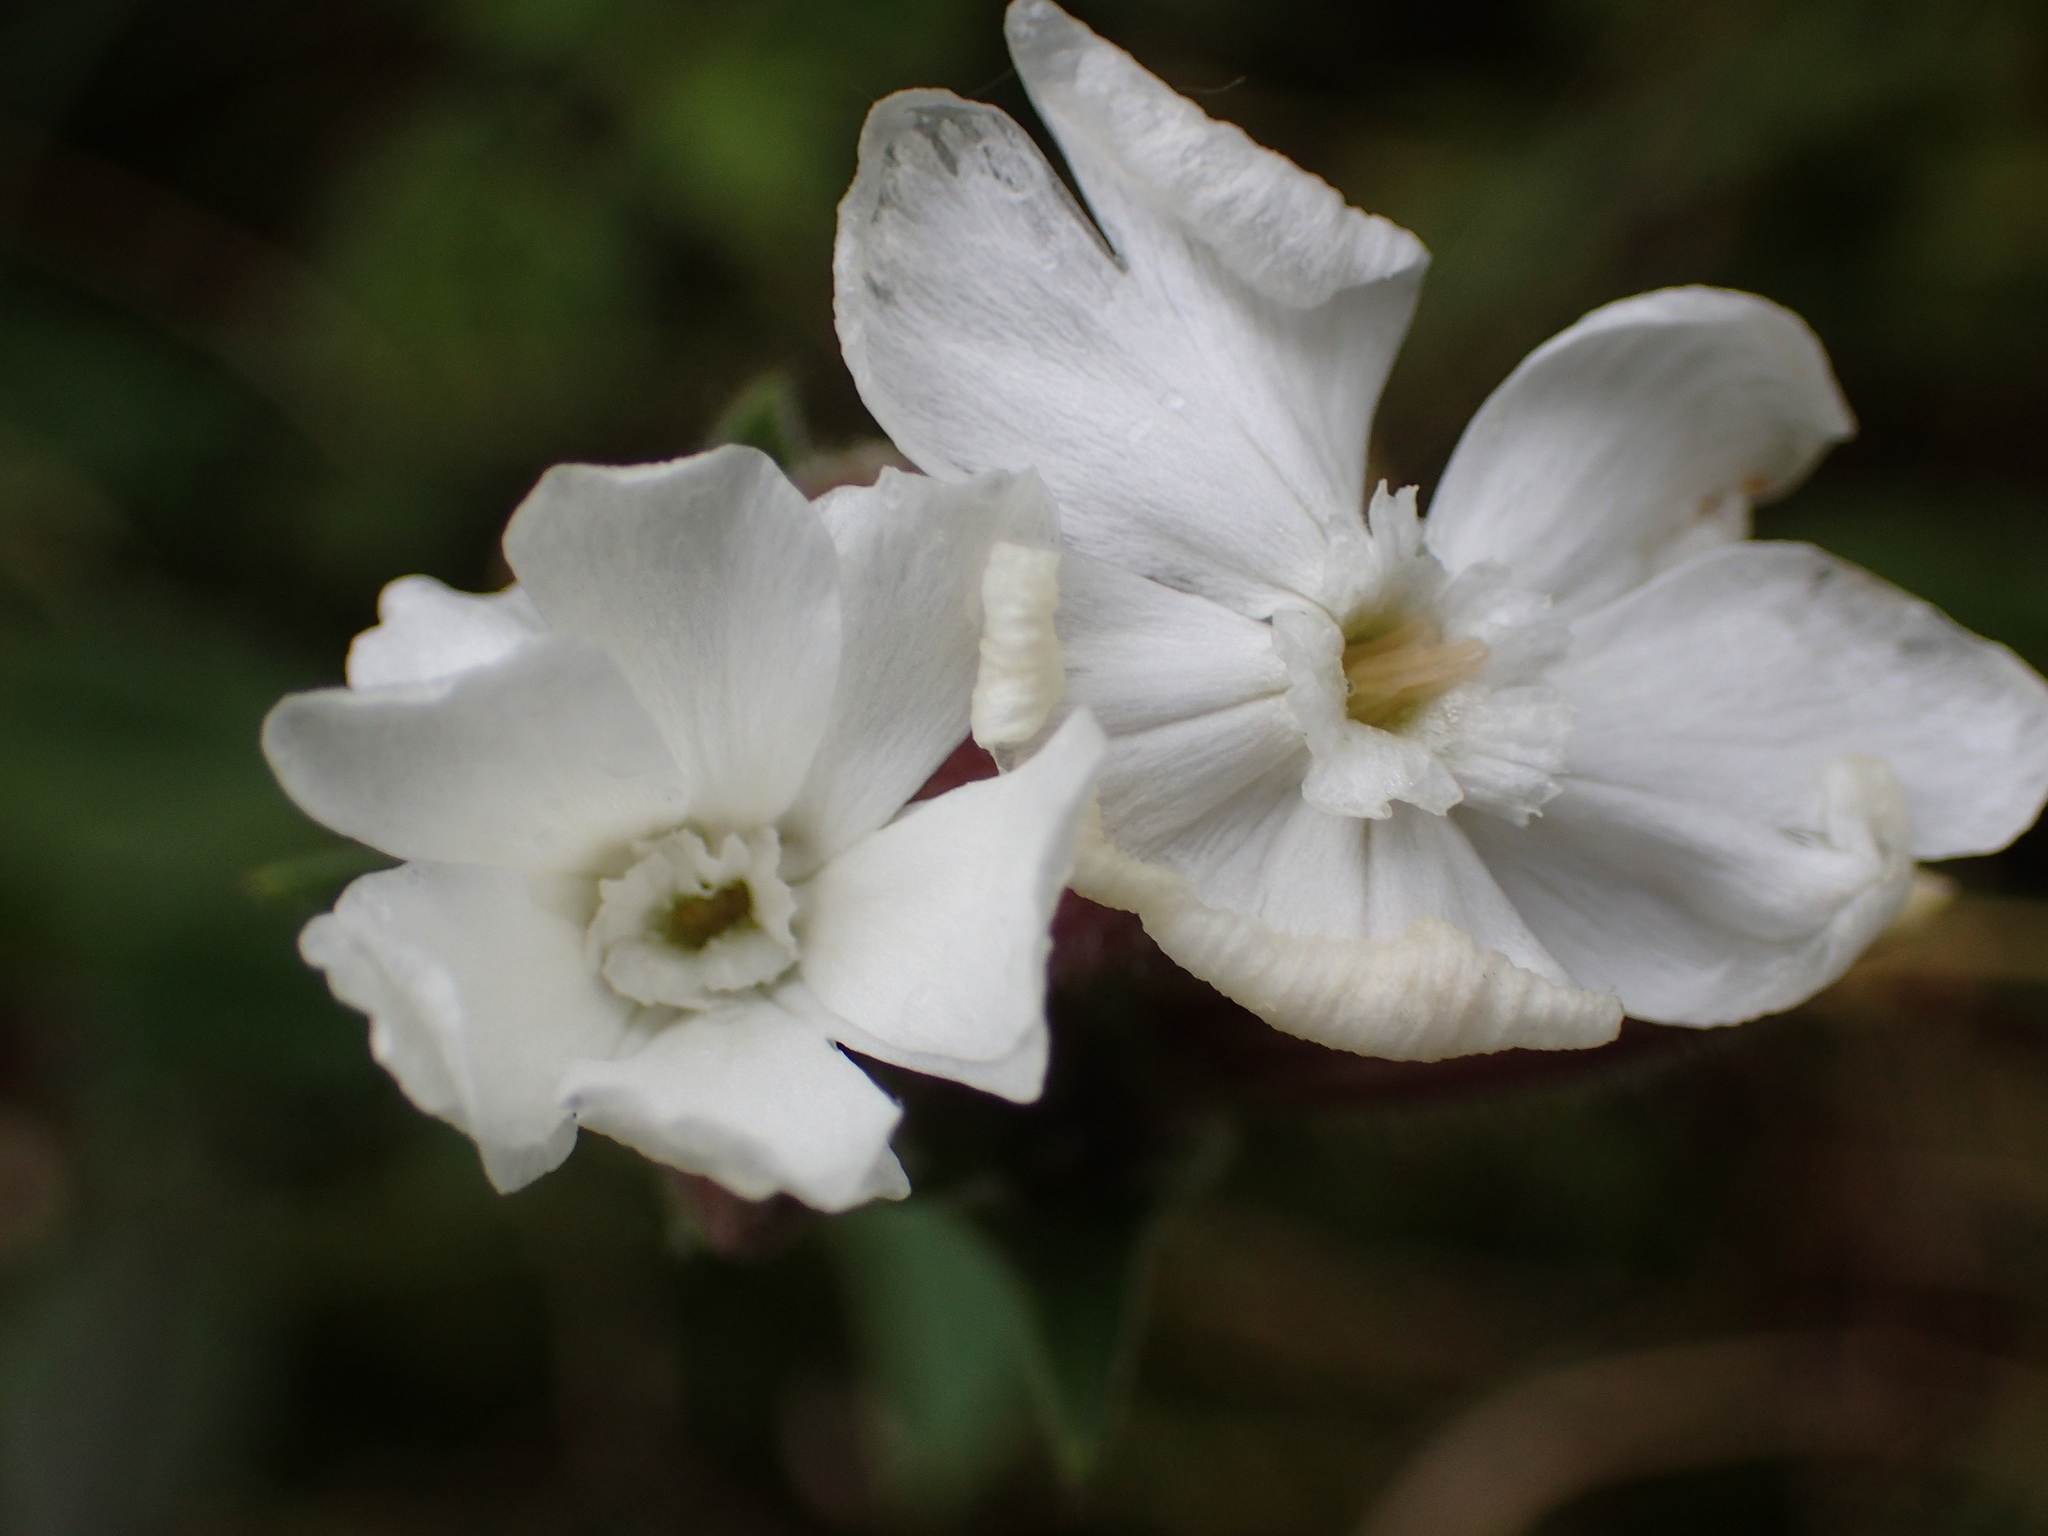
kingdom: Plantae
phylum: Tracheophyta
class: Magnoliopsida
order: Caryophyllales
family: Caryophyllaceae
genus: Silene
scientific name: Silene latifolia
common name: White campion
